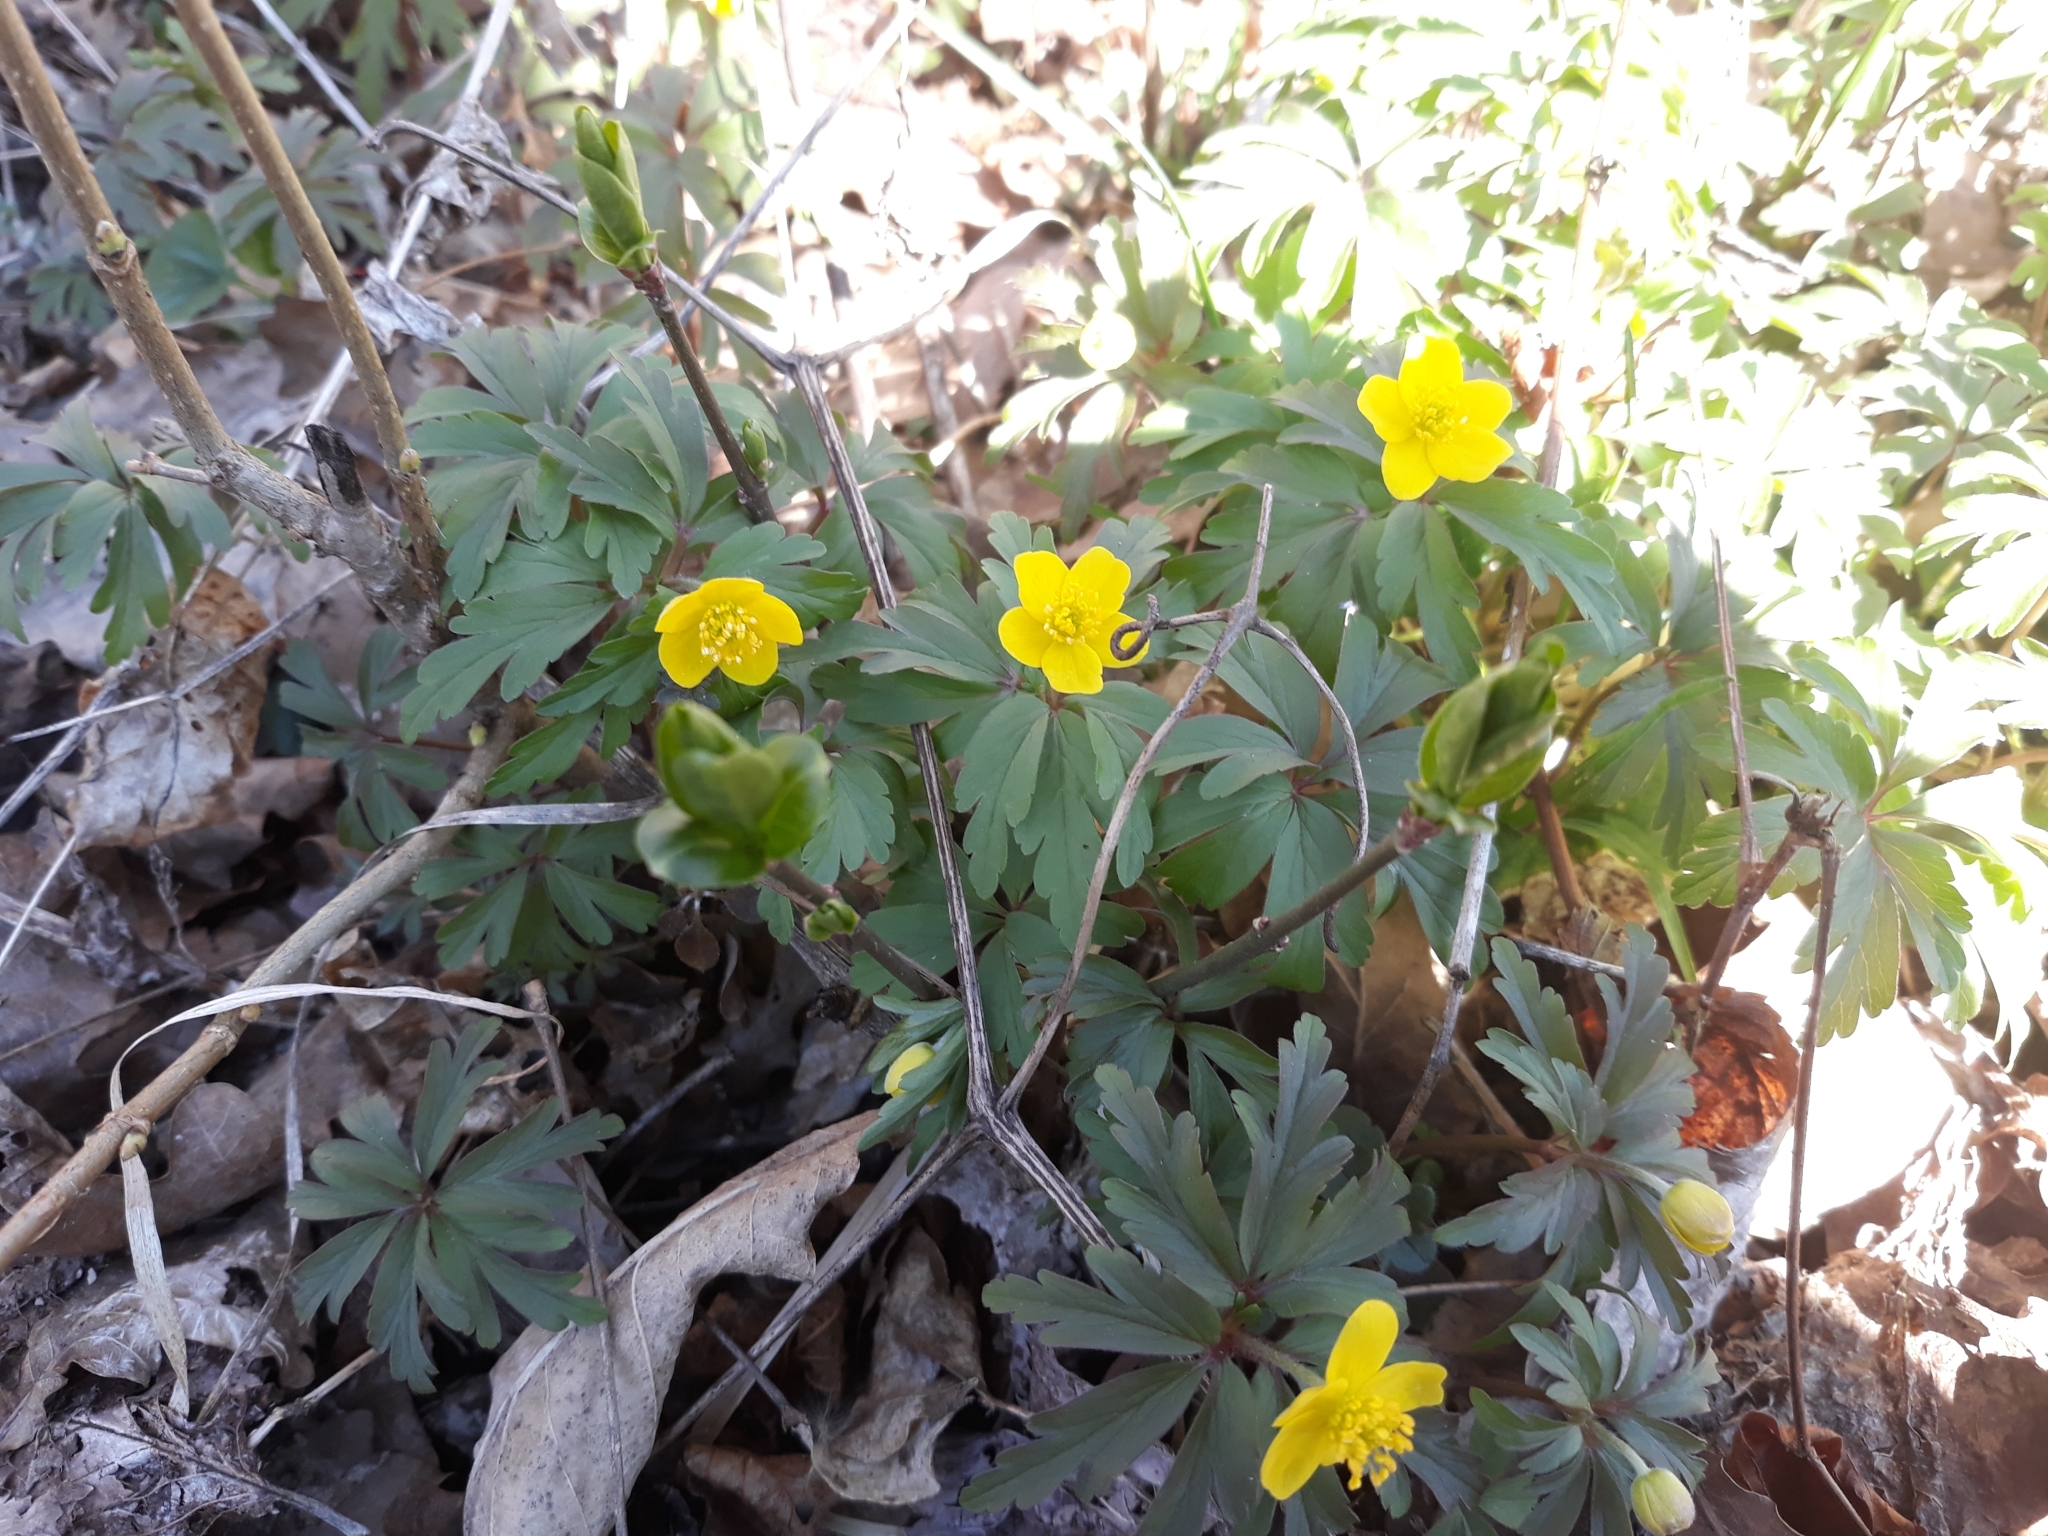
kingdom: Plantae
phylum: Tracheophyta
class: Magnoliopsida
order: Ranunculales
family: Ranunculaceae
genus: Anemone
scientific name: Anemone ranunculoides
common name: Yellow anemone
